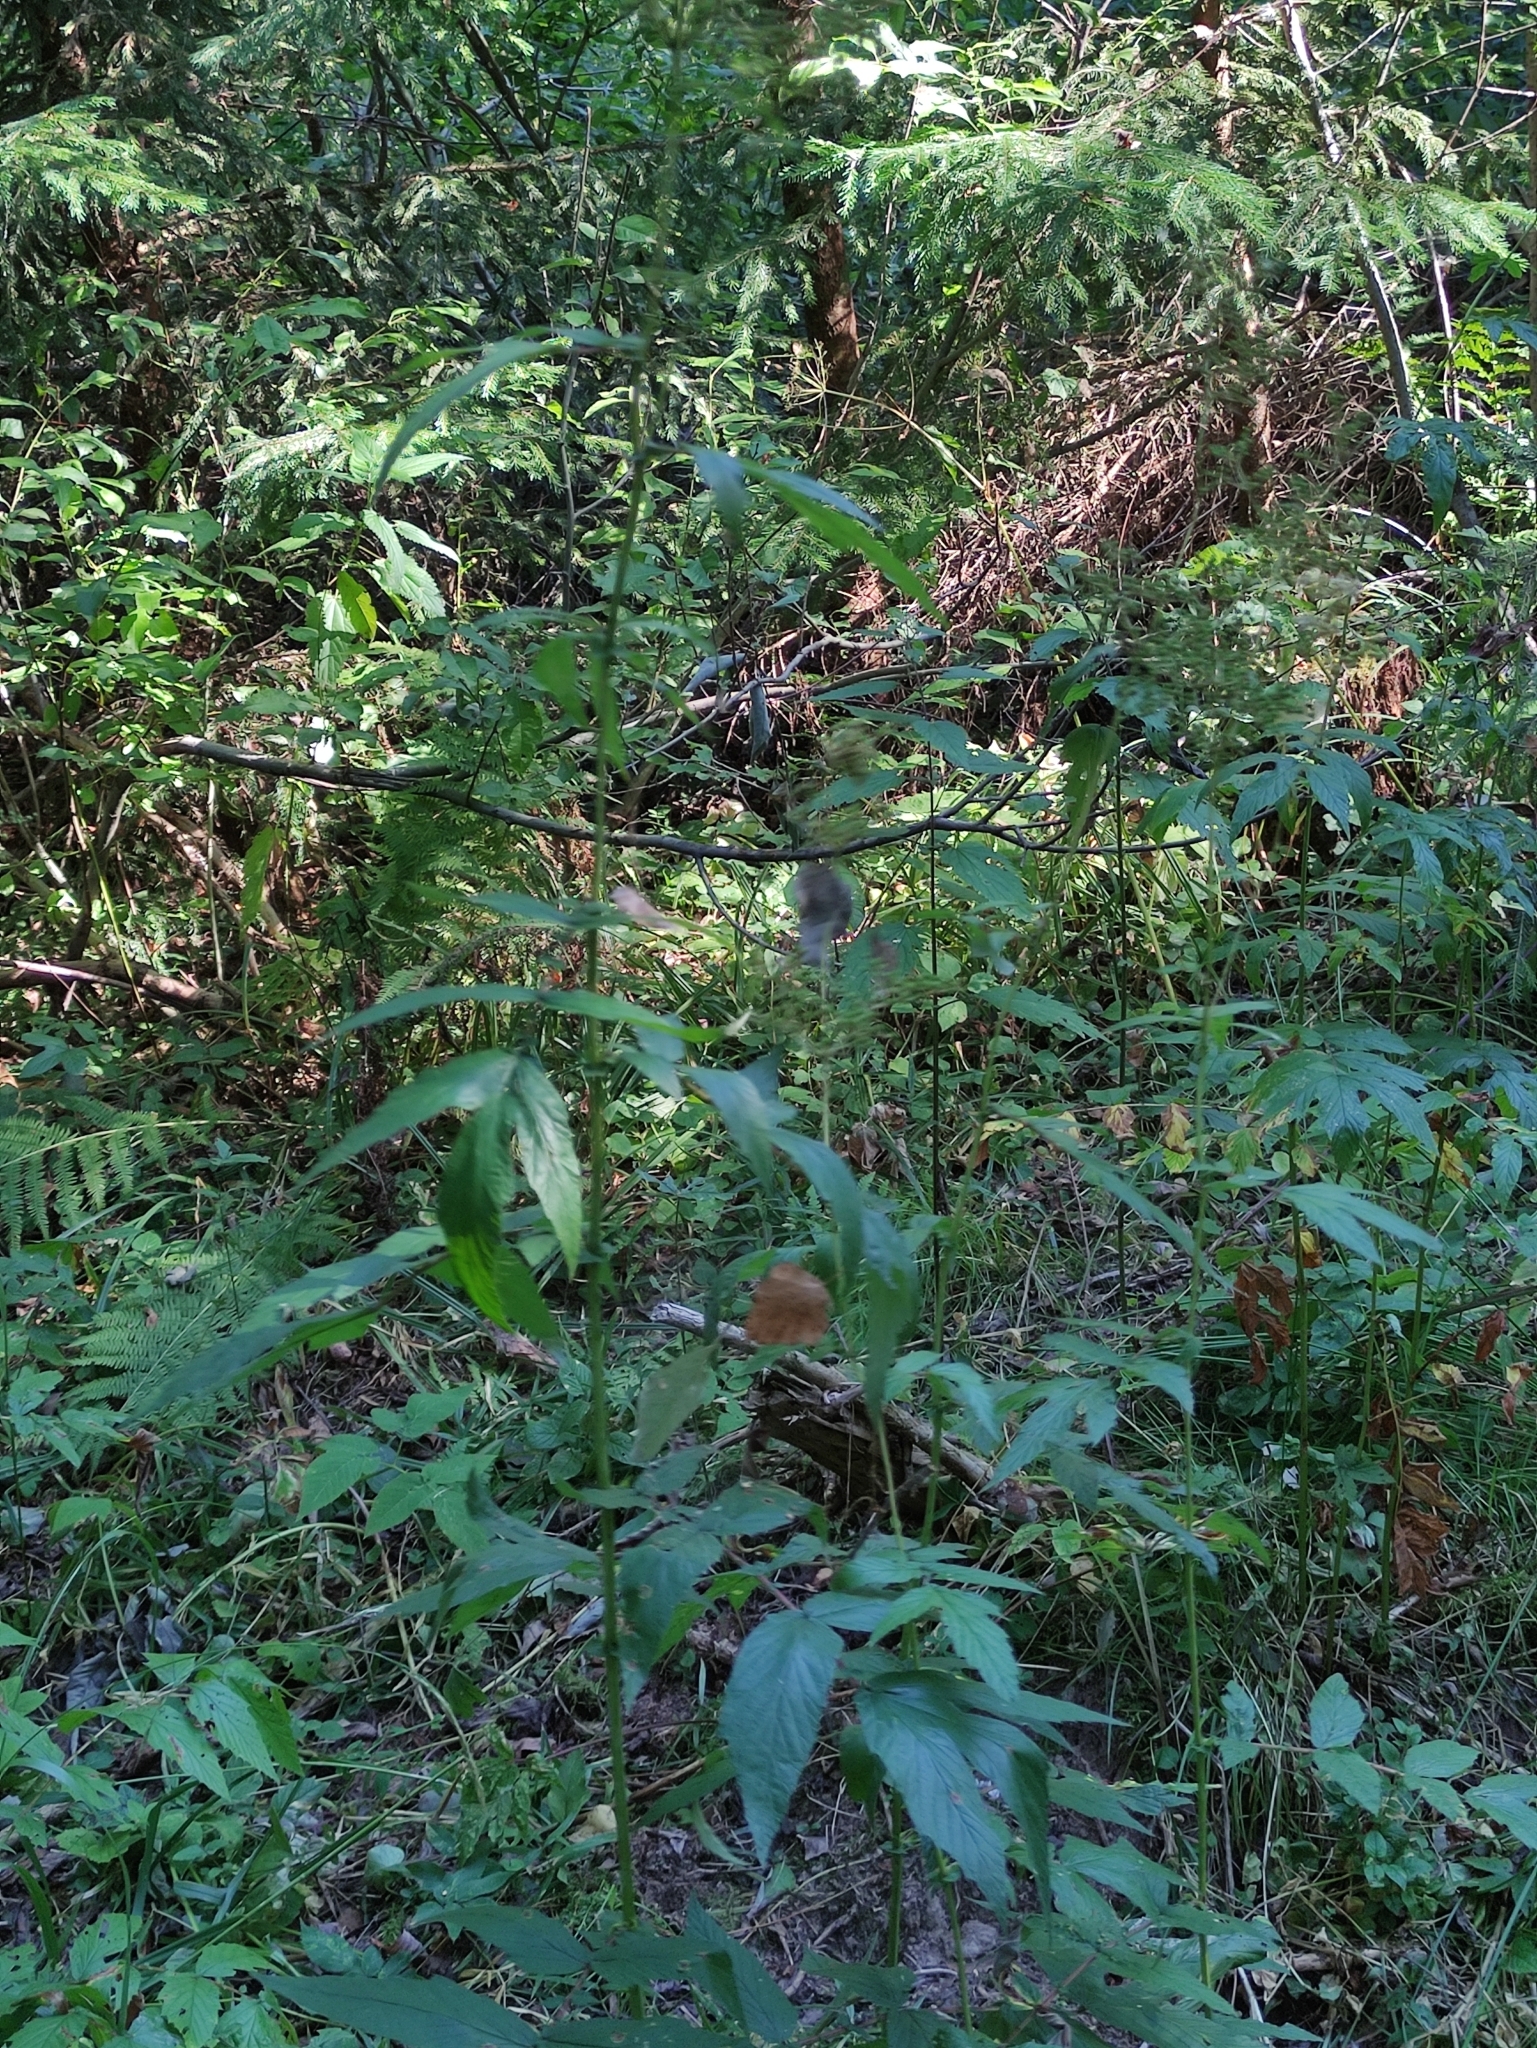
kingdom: Plantae
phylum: Tracheophyta
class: Magnoliopsida
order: Rosales
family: Rosaceae
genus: Filipendula
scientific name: Filipendula ulmaria
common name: Meadowsweet
